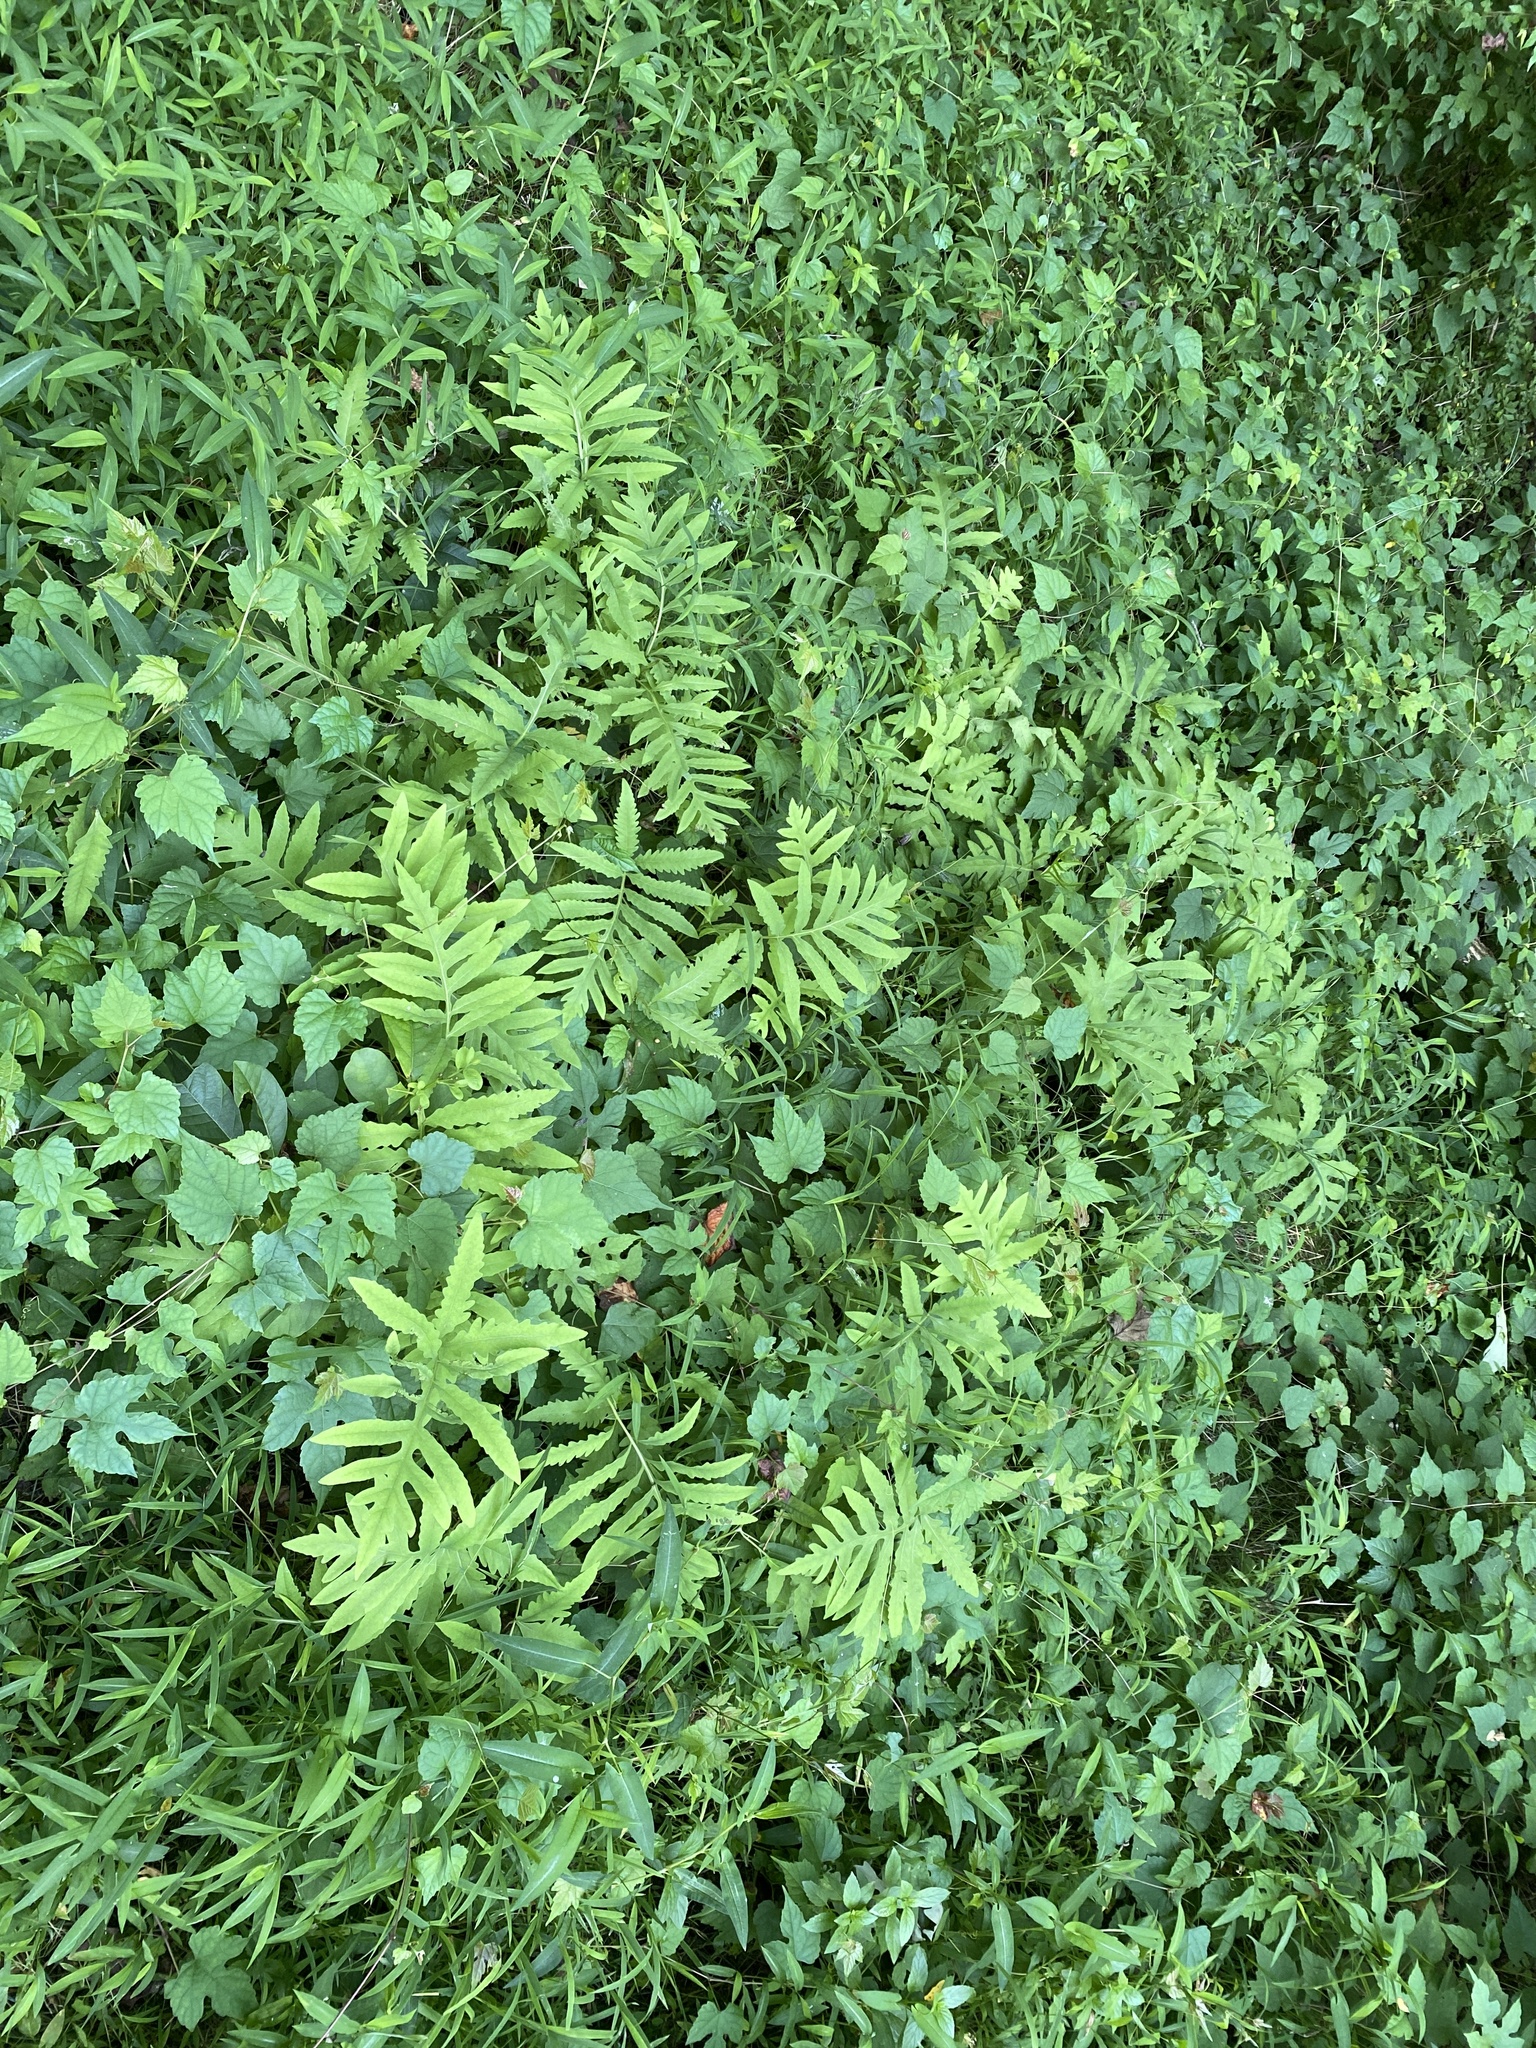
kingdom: Plantae
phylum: Tracheophyta
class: Polypodiopsida
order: Polypodiales
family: Onocleaceae
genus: Onoclea
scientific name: Onoclea sensibilis
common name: Sensitive fern
